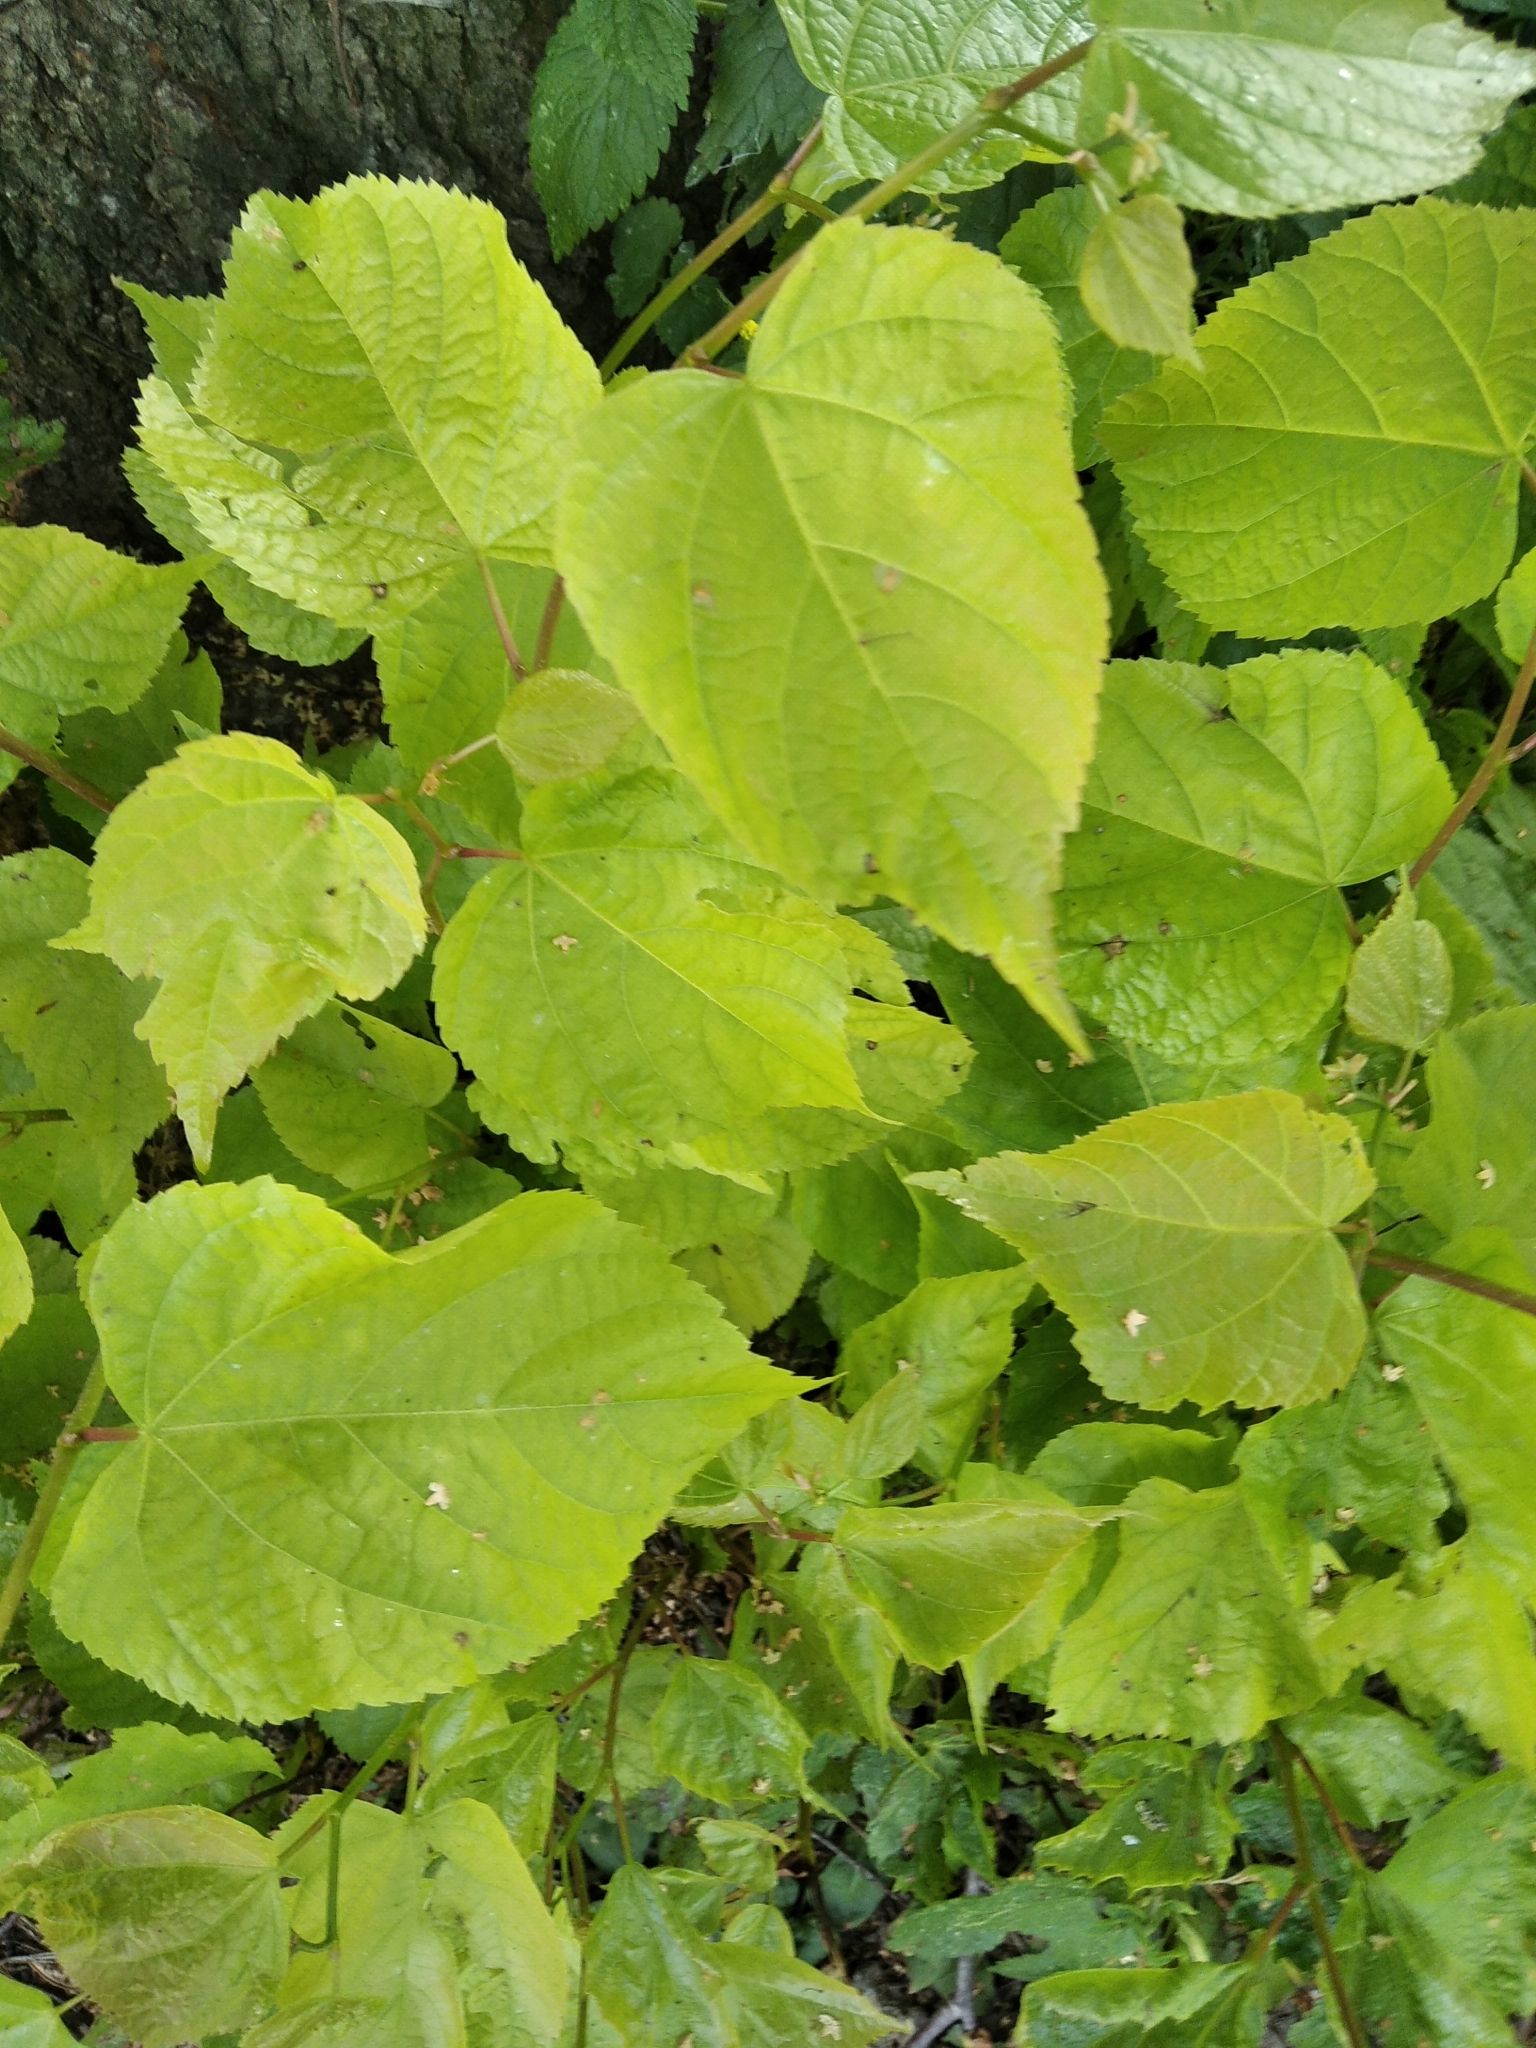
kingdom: Plantae
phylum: Tracheophyta
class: Magnoliopsida
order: Malvales
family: Malvaceae
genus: Tilia
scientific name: Tilia cordata
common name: Small-leaved lime
